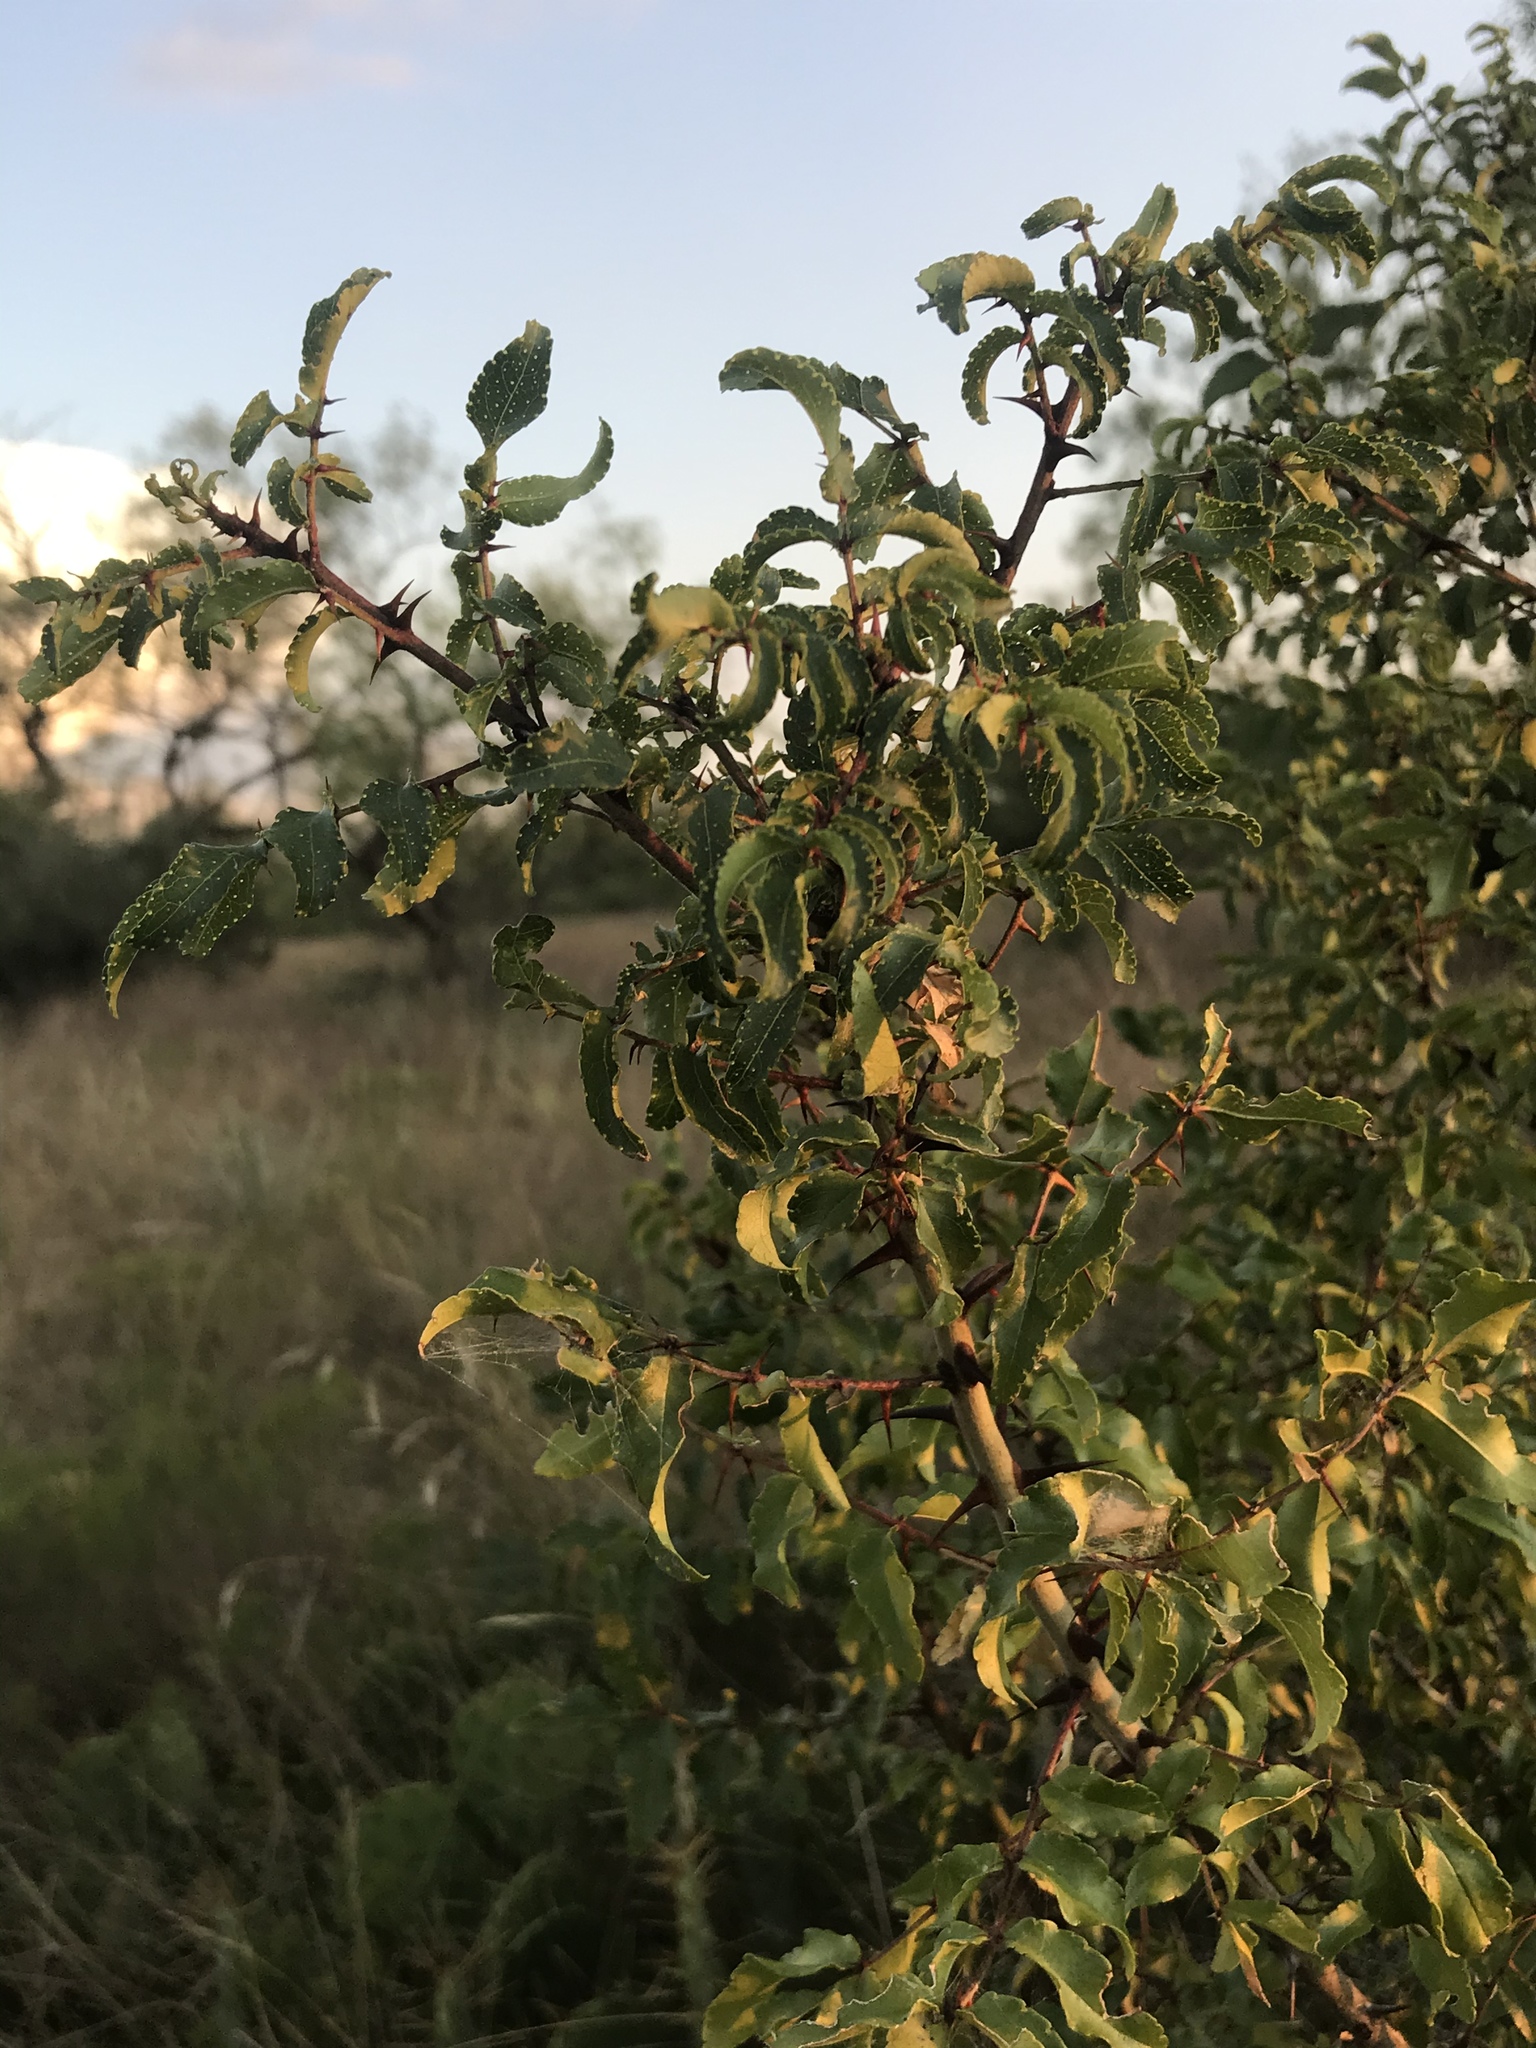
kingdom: Plantae
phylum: Tracheophyta
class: Magnoliopsida
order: Sapindales
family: Rutaceae
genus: Zanthoxylum
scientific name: Zanthoxylum clava-herculis
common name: Hercules'-club
